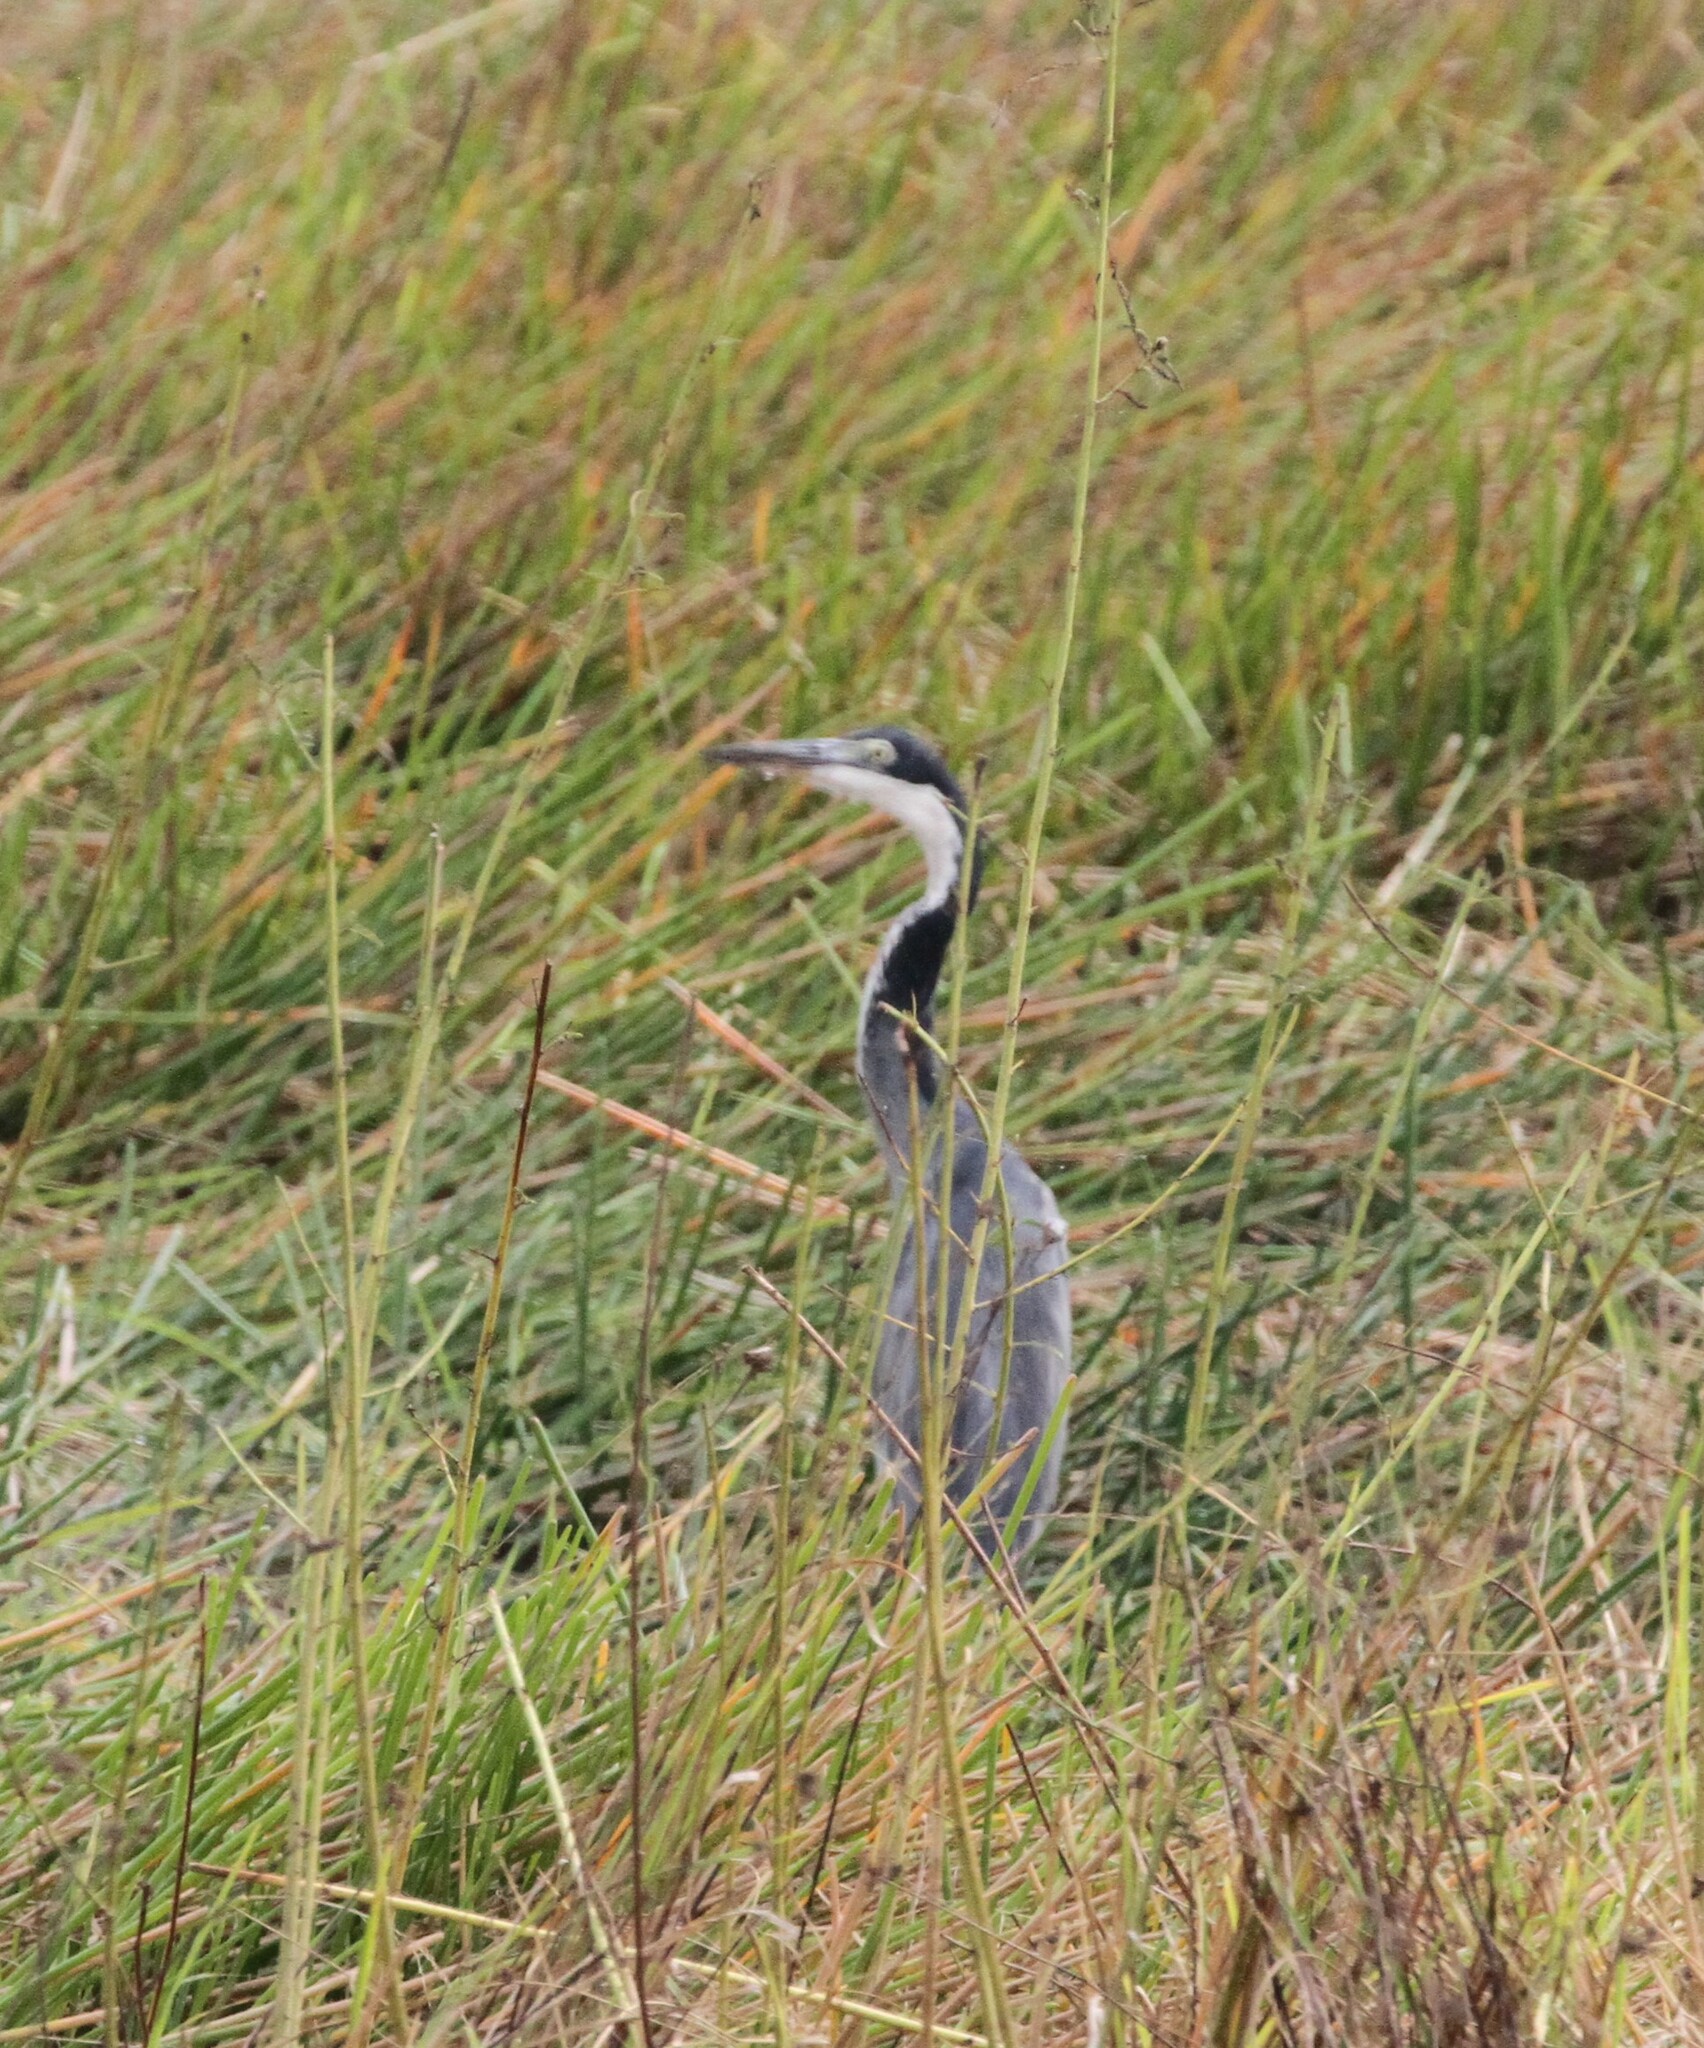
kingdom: Animalia
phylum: Chordata
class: Aves
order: Pelecaniformes
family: Ardeidae
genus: Ardea
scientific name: Ardea melanocephala
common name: Black-headed heron
